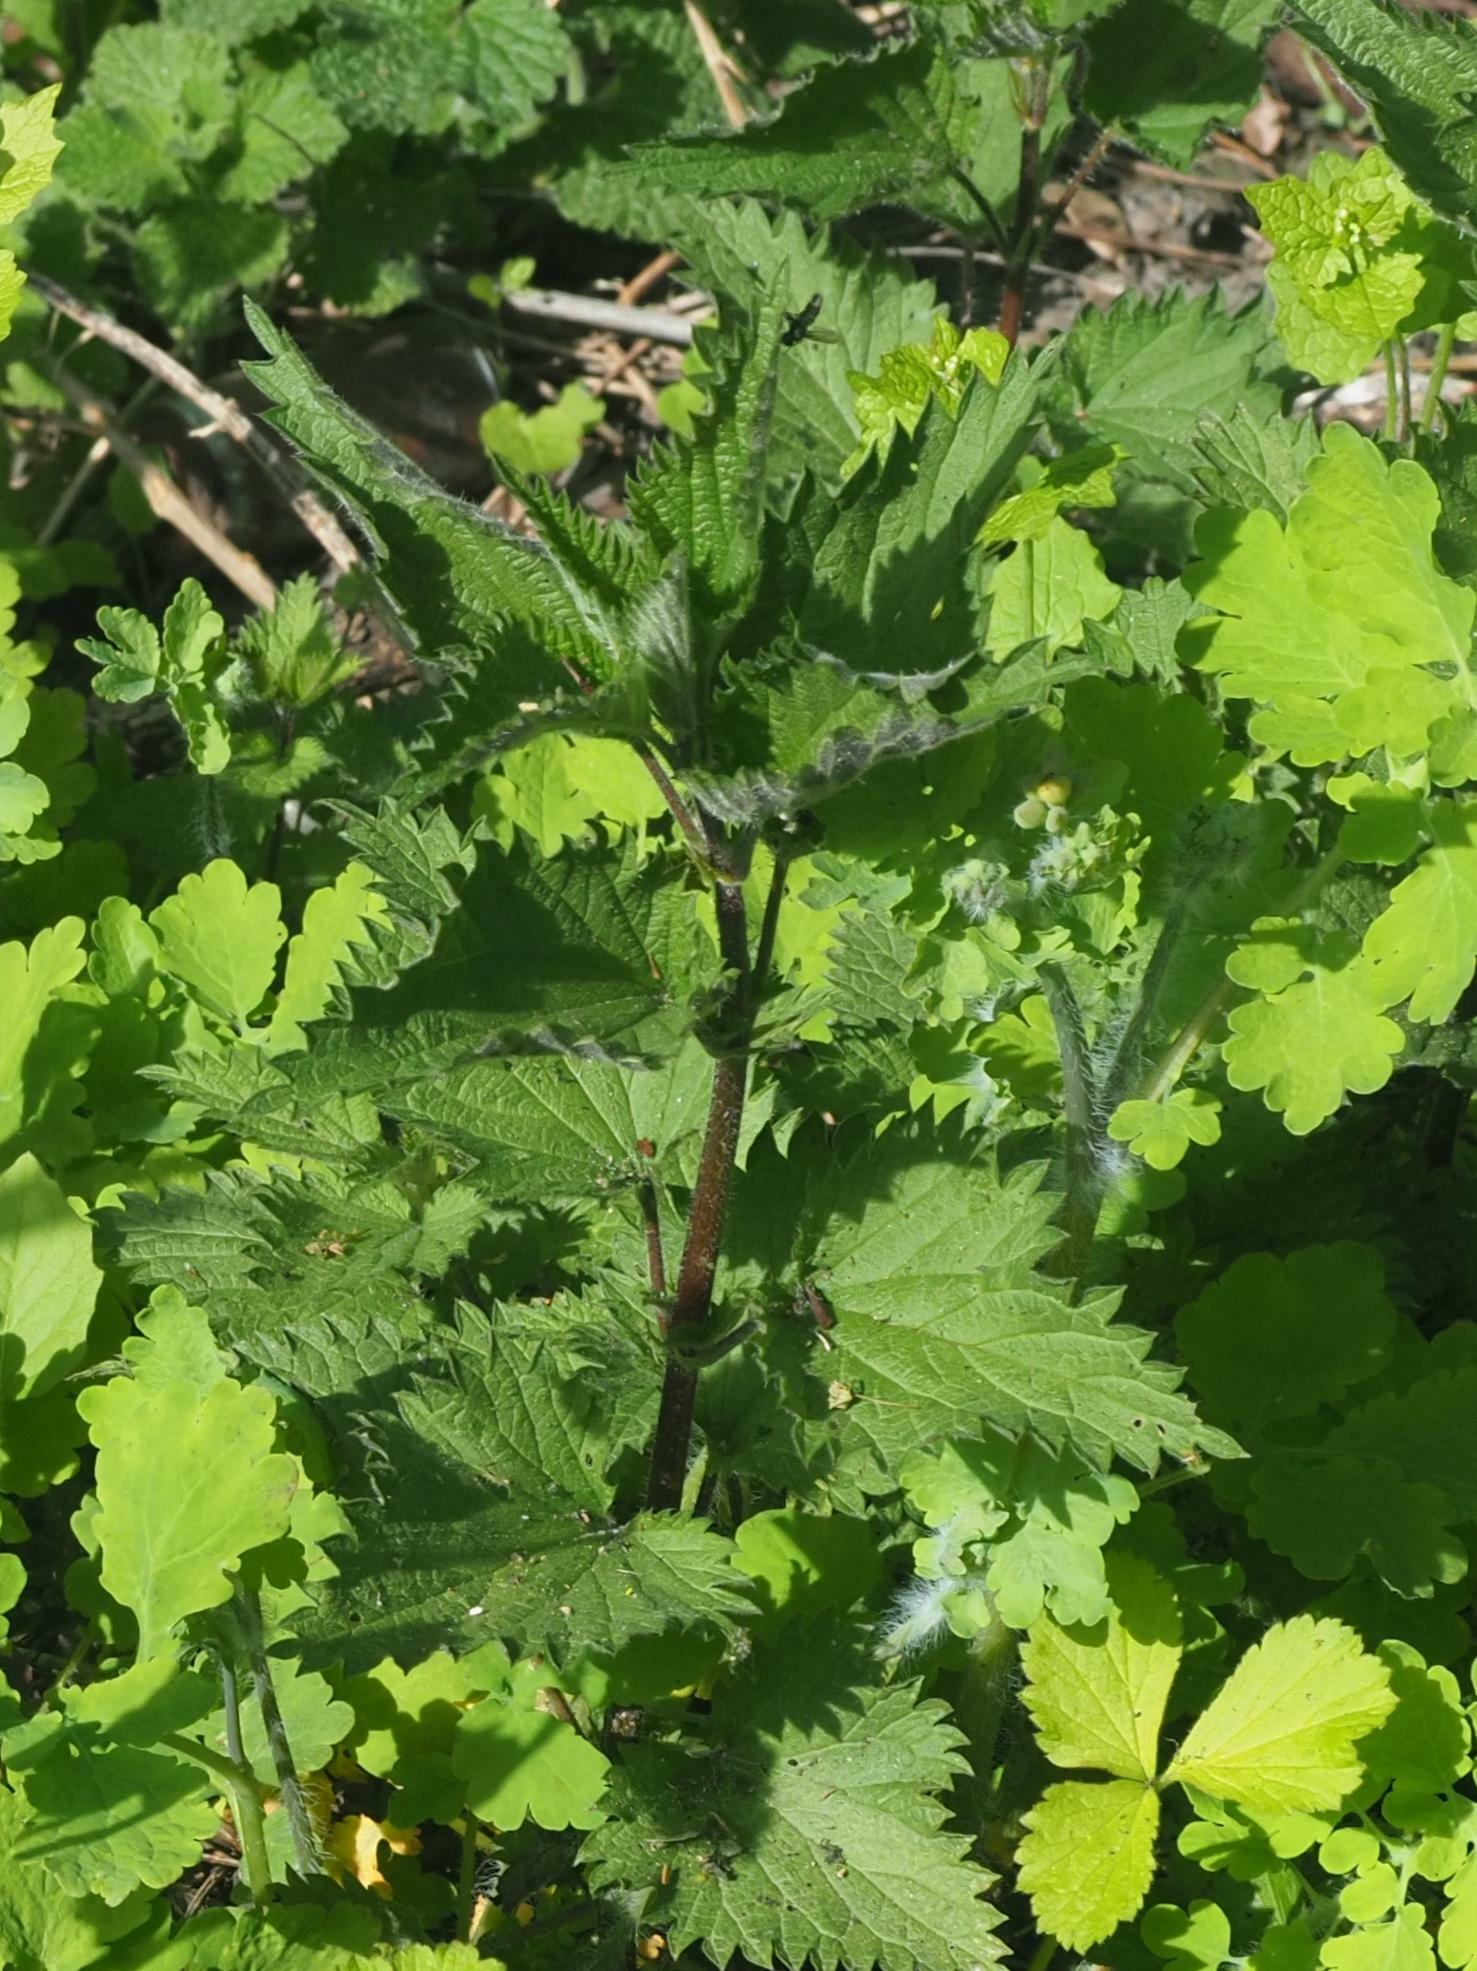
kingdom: Plantae
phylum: Tracheophyta
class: Magnoliopsida
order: Rosales
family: Urticaceae
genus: Urtica
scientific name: Urtica dioica
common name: Common nettle
